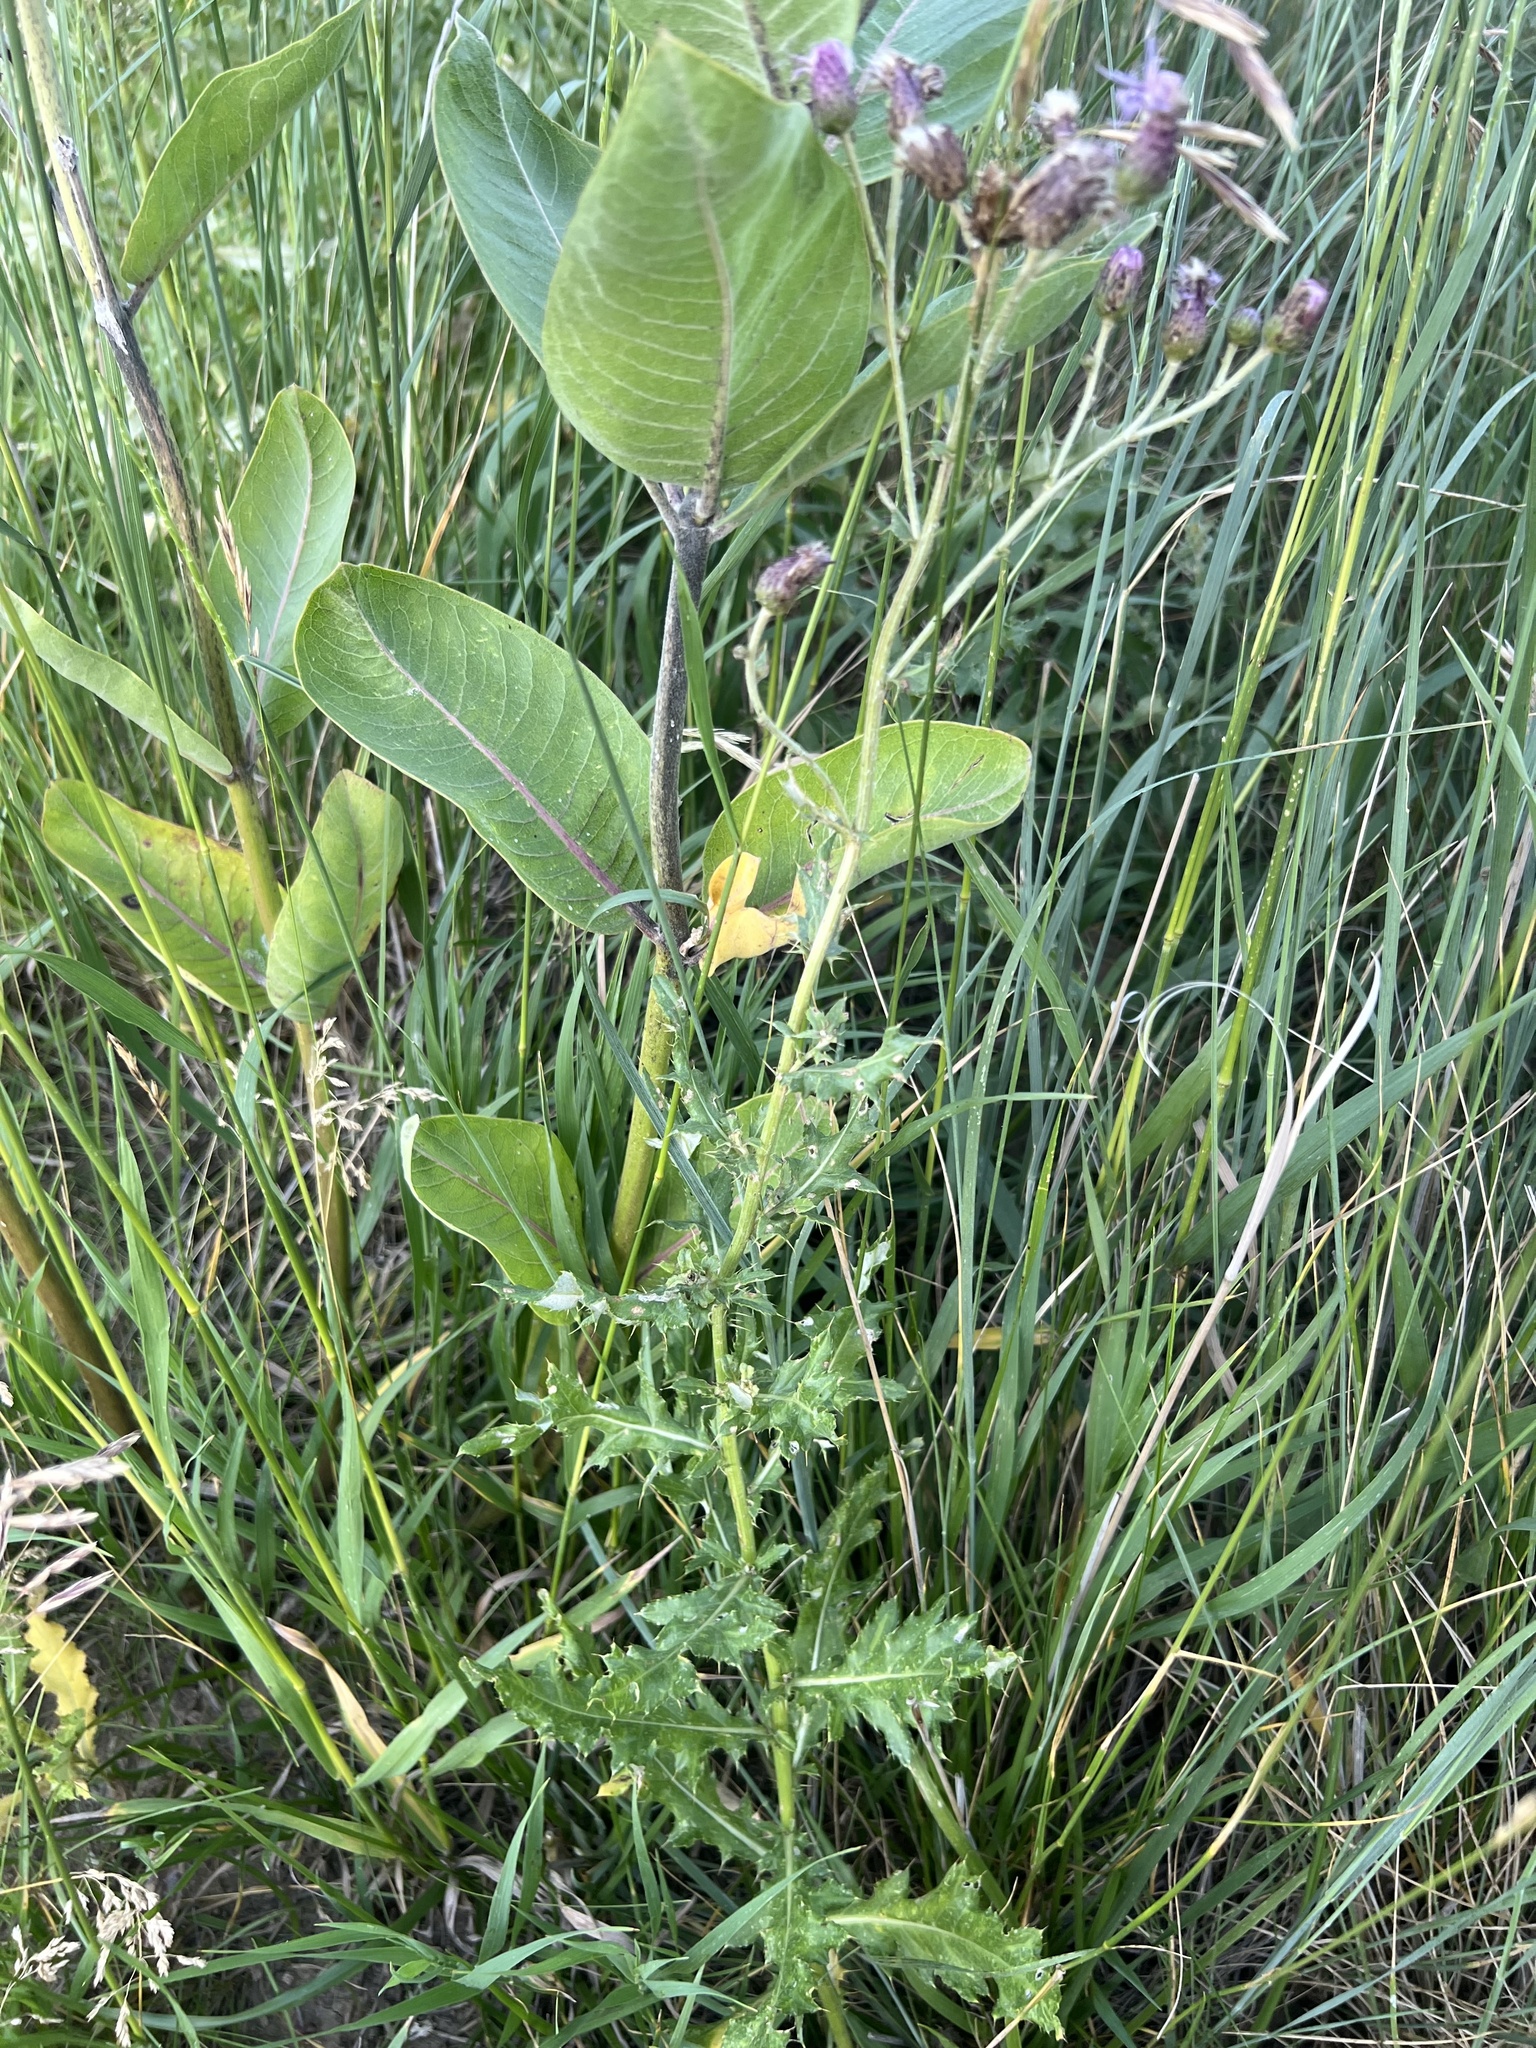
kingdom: Plantae
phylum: Tracheophyta
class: Magnoliopsida
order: Asterales
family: Asteraceae
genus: Cirsium
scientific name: Cirsium arvense
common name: Creeping thistle
